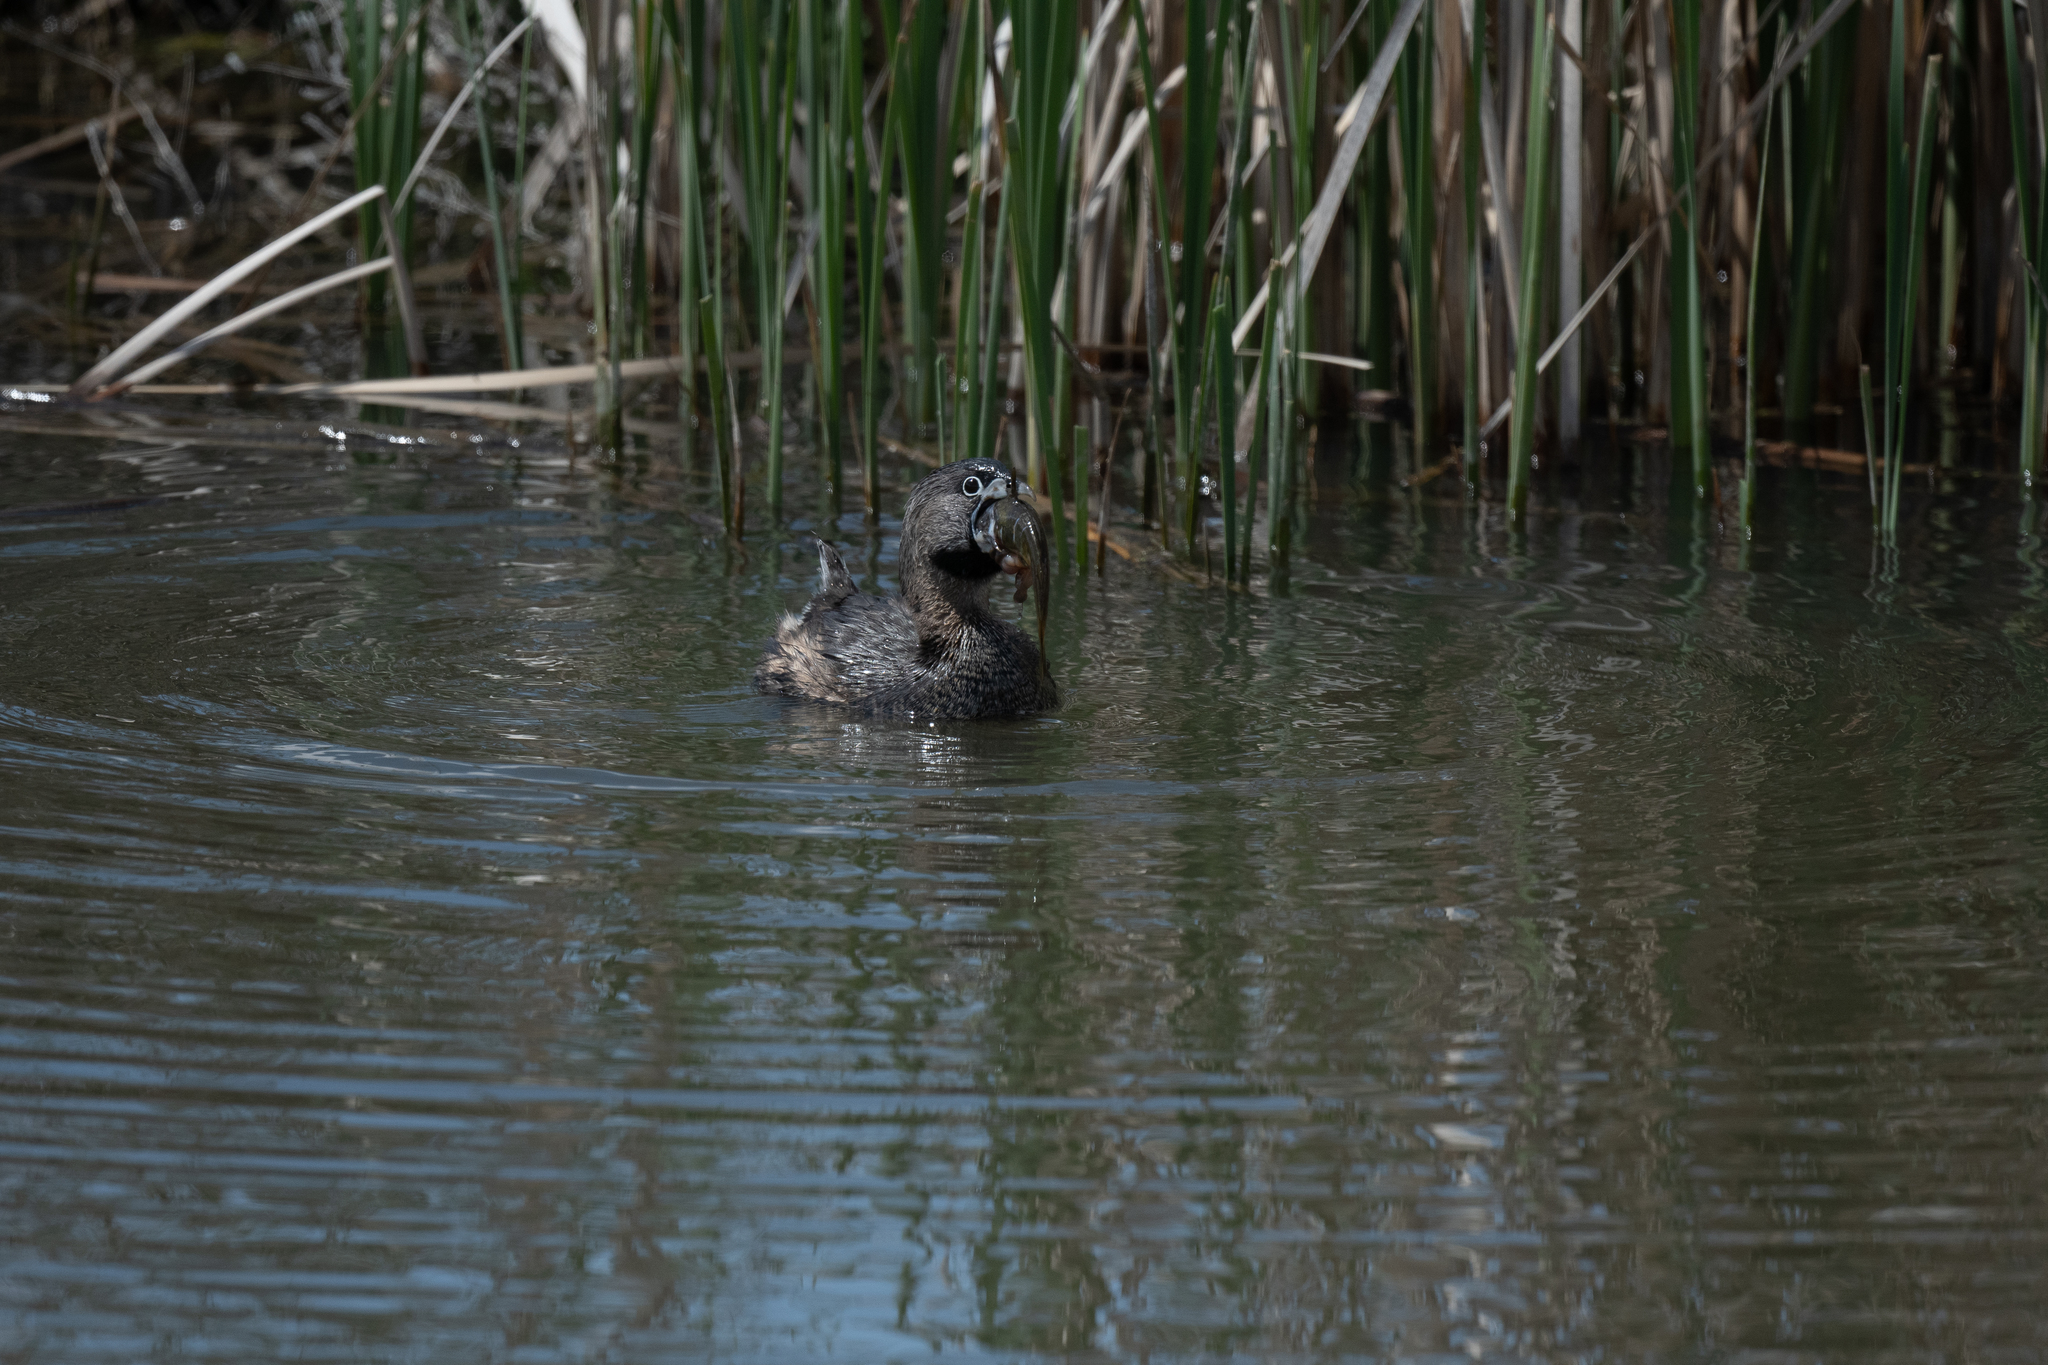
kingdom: Animalia
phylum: Chordata
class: Aves
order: Podicipediformes
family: Podicipedidae
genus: Podilymbus
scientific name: Podilymbus podiceps
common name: Pied-billed grebe
